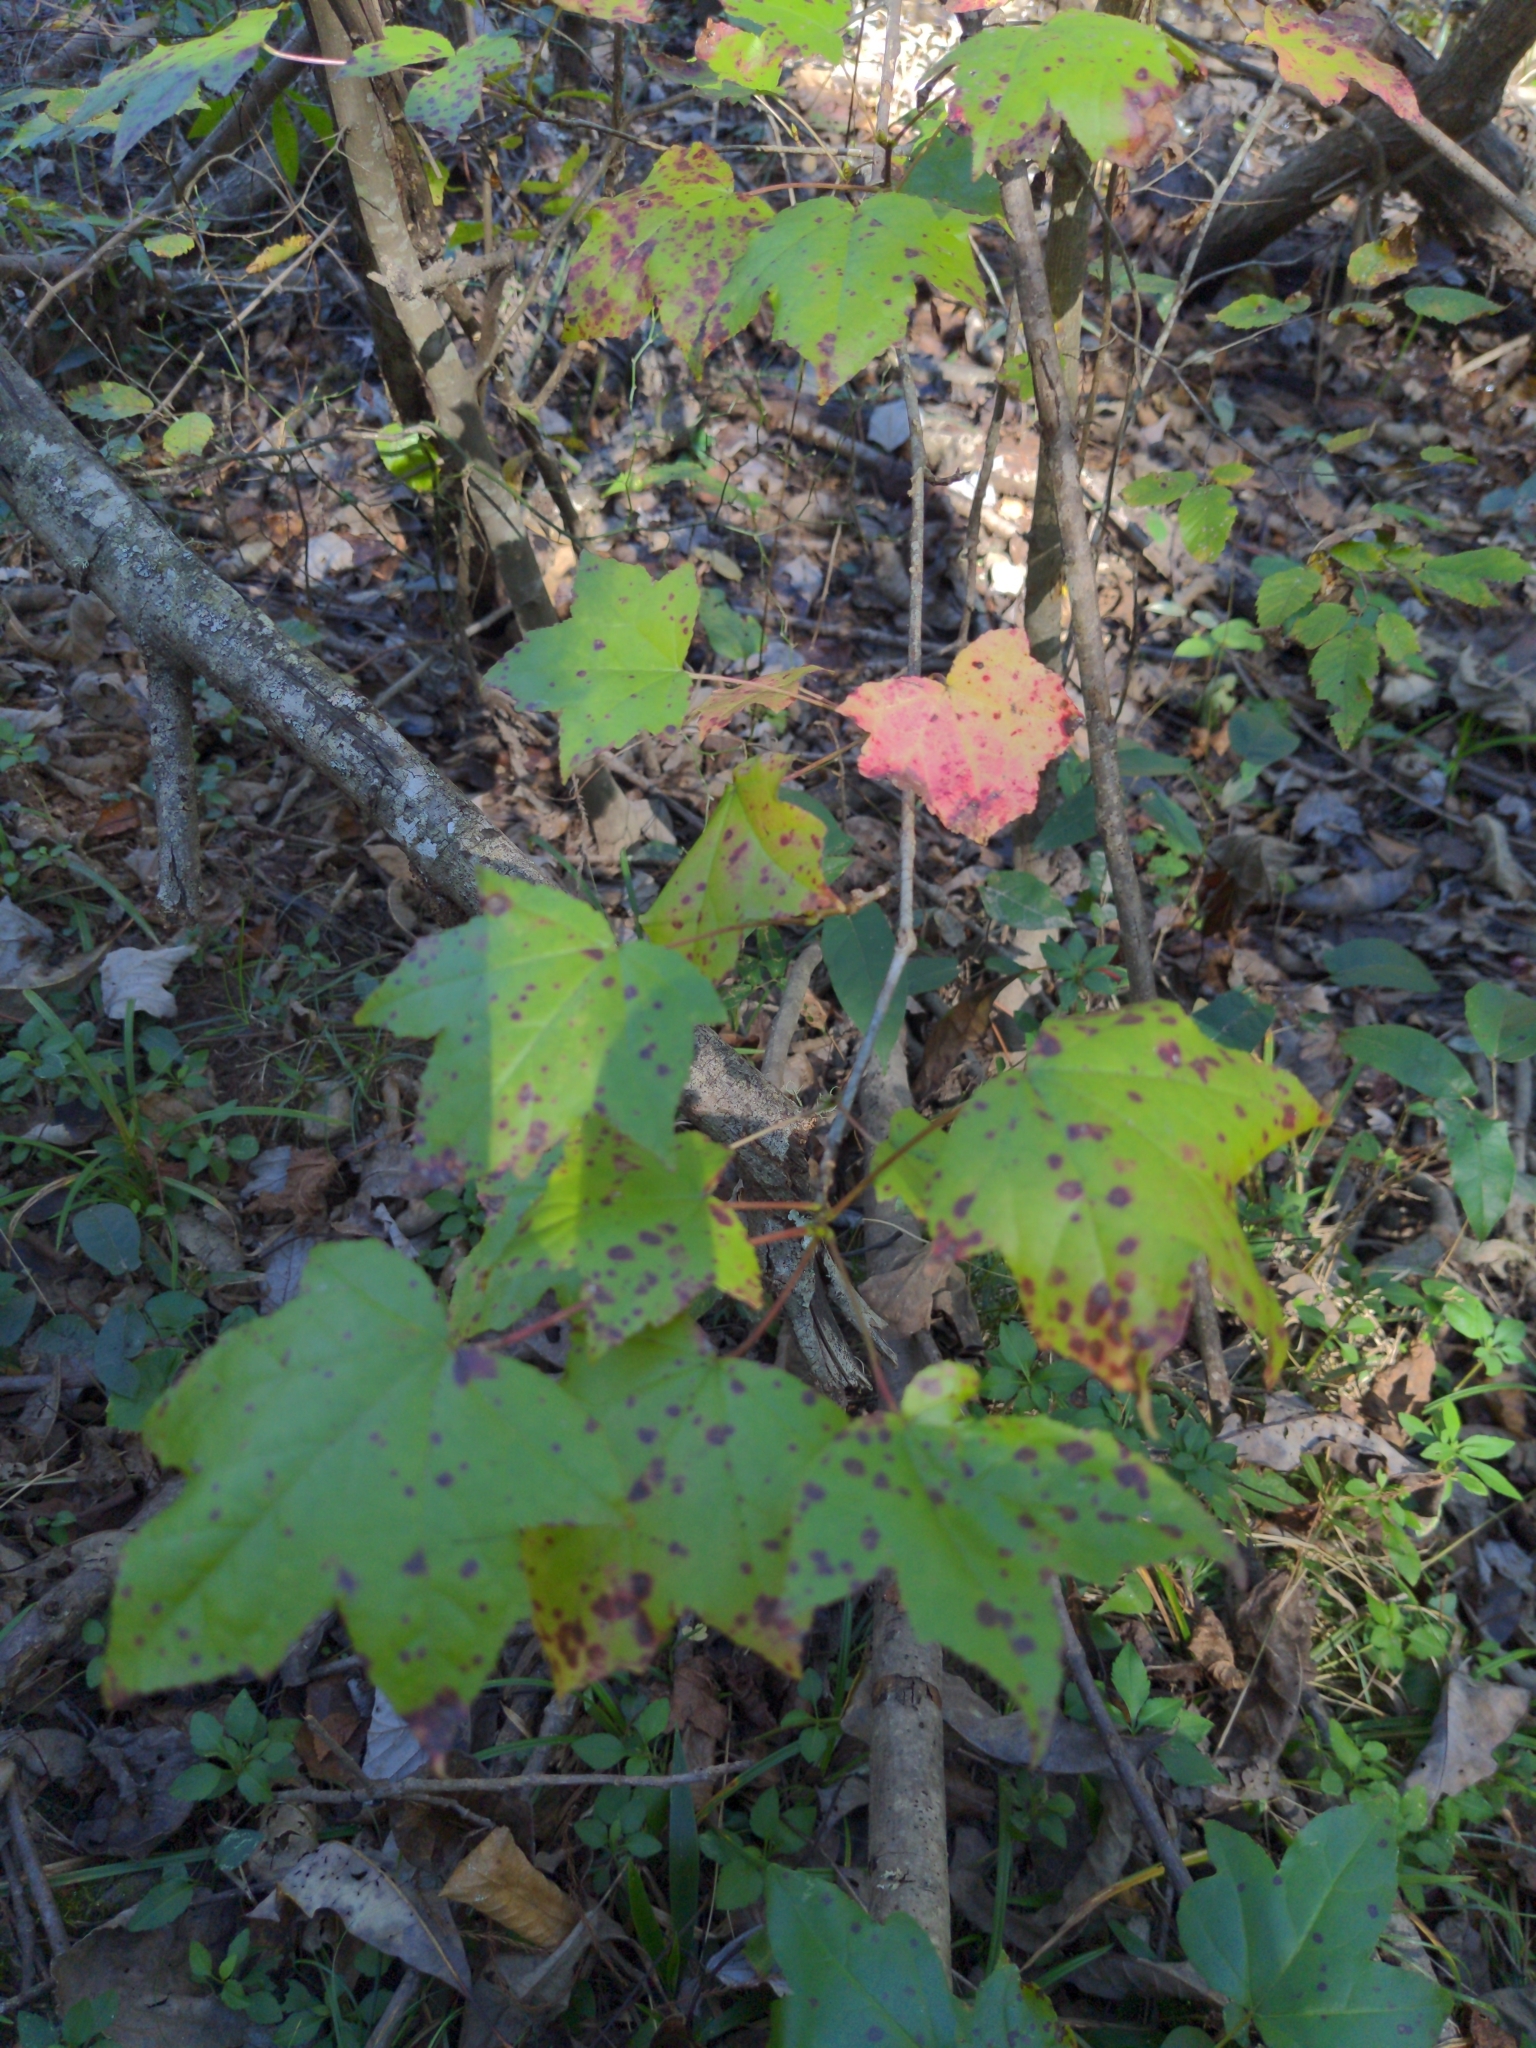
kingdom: Plantae
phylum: Tracheophyta
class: Magnoliopsida
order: Saxifragales
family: Altingiaceae
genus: Liquidambar
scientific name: Liquidambar styraciflua
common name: Sweet gum
